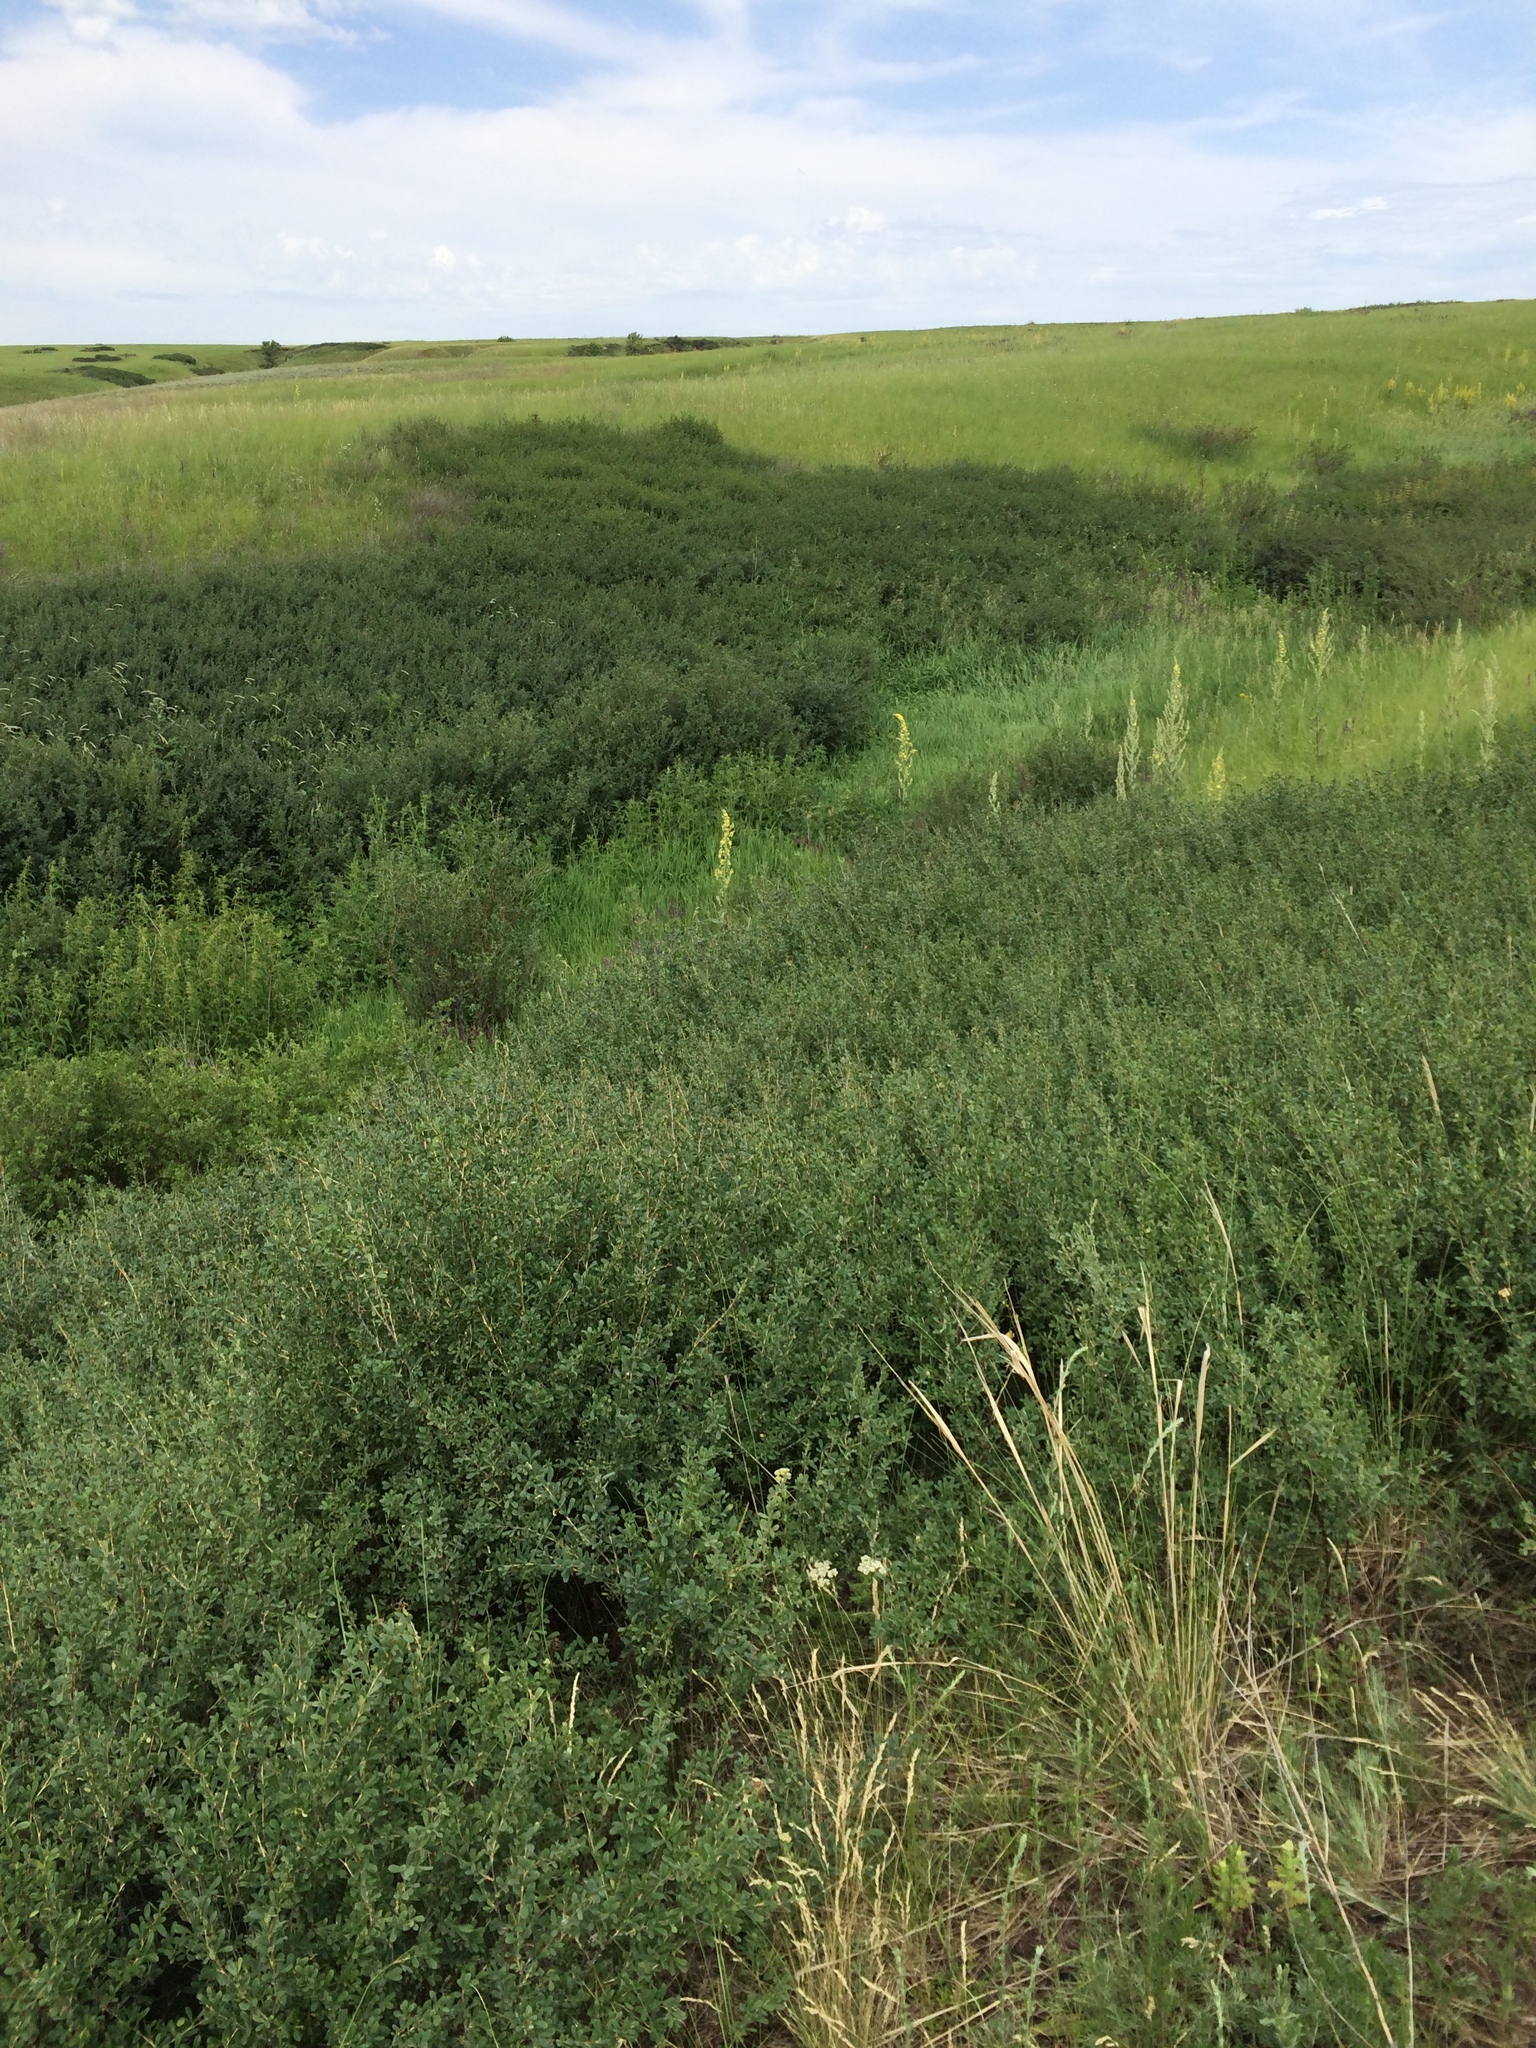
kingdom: Plantae
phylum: Tracheophyta
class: Magnoliopsida
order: Fabales
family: Fabaceae
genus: Caragana
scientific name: Caragana frutex
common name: Russian peashrub
